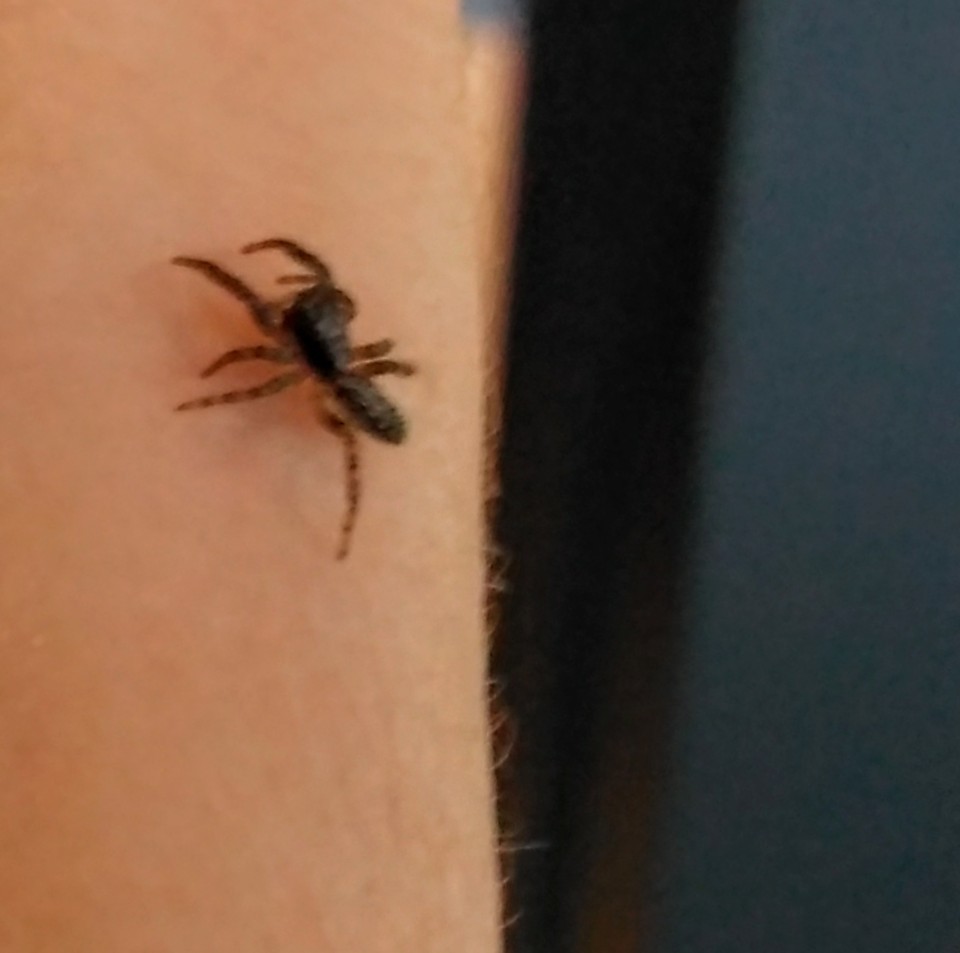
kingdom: Animalia
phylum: Arthropoda
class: Arachnida
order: Araneae
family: Salticidae
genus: Platycryptus
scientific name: Platycryptus californicus
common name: Jumping spiders
